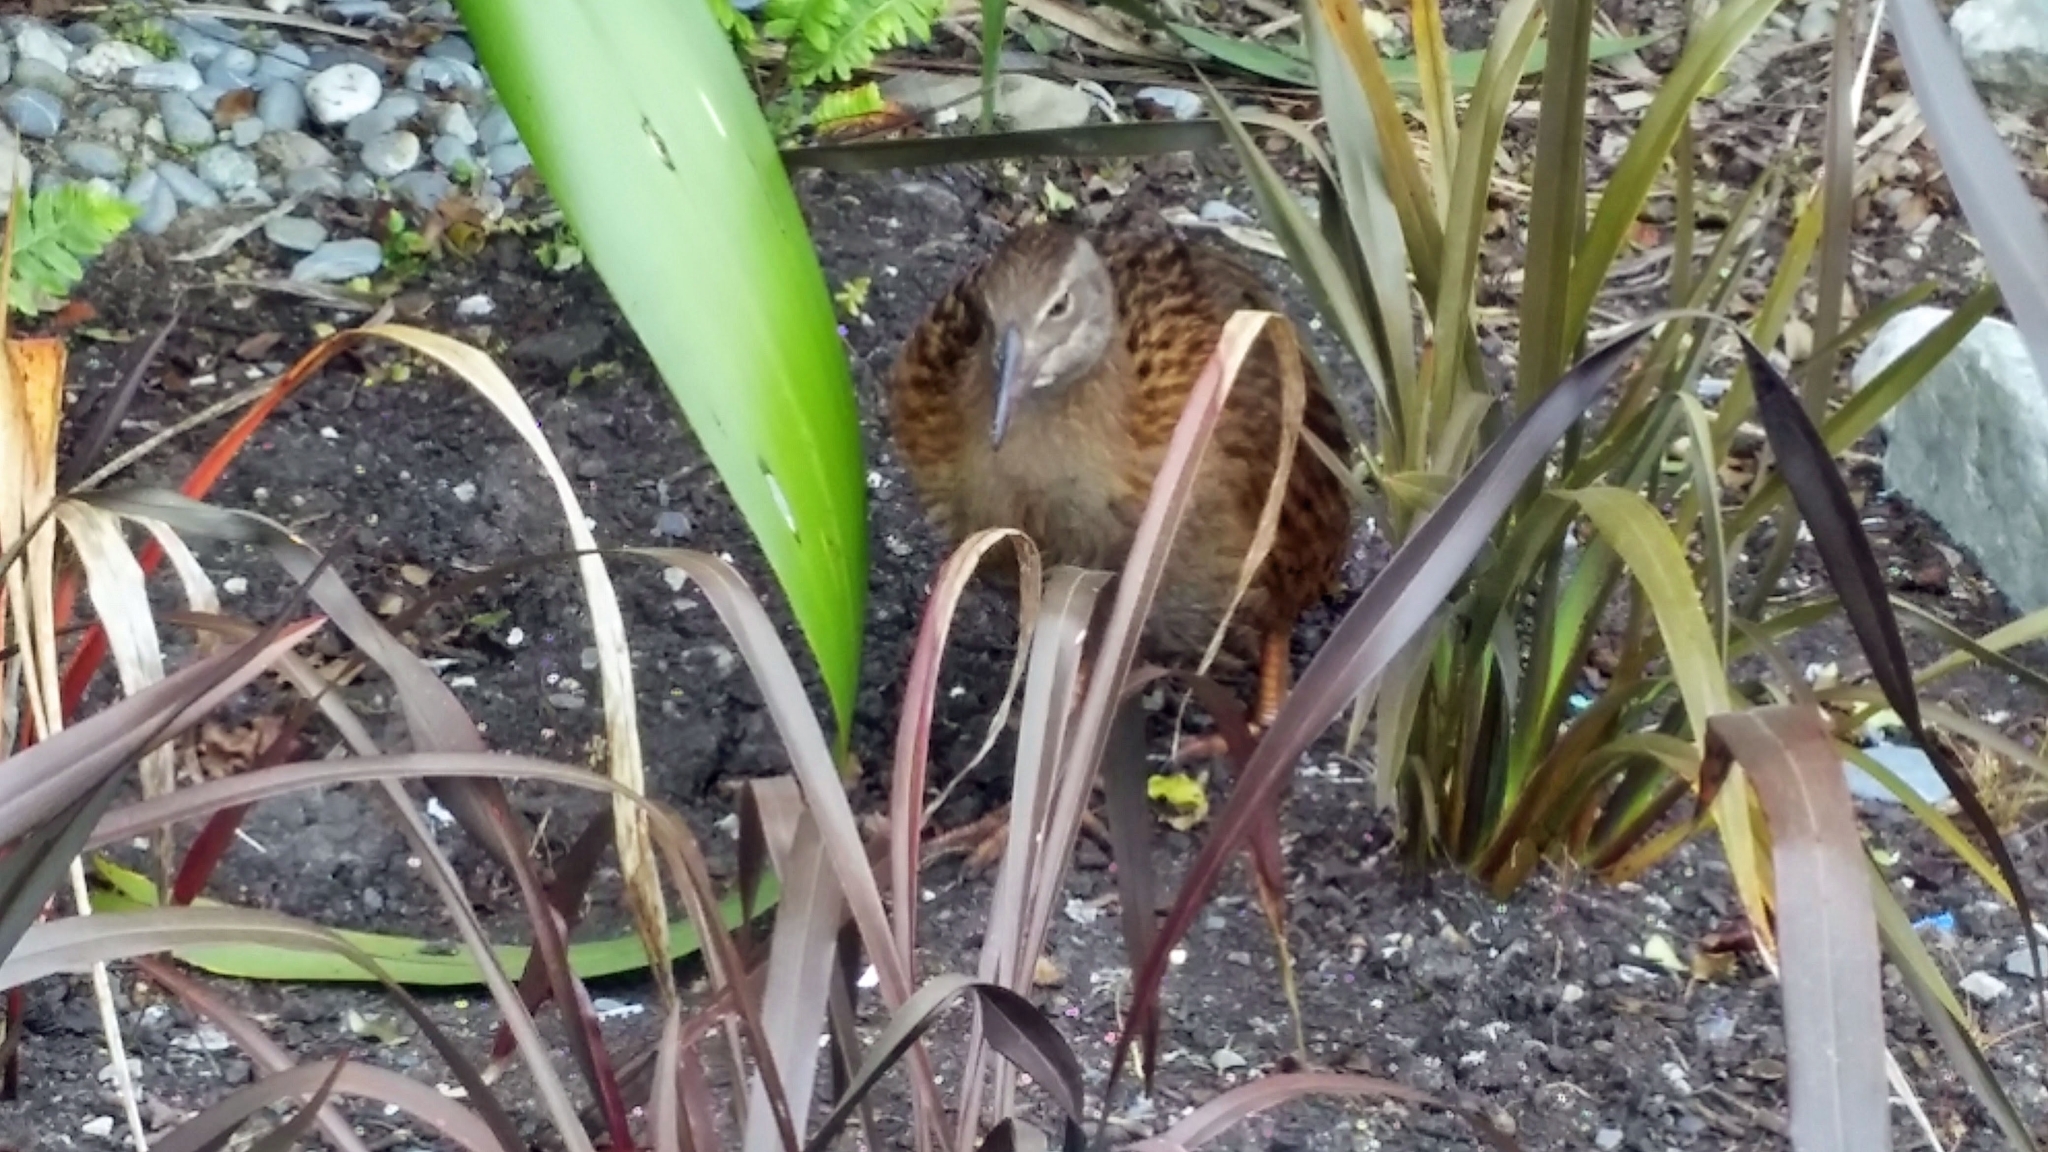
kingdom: Animalia
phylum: Chordata
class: Aves
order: Gruiformes
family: Rallidae
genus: Gallirallus
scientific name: Gallirallus australis
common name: Weka
